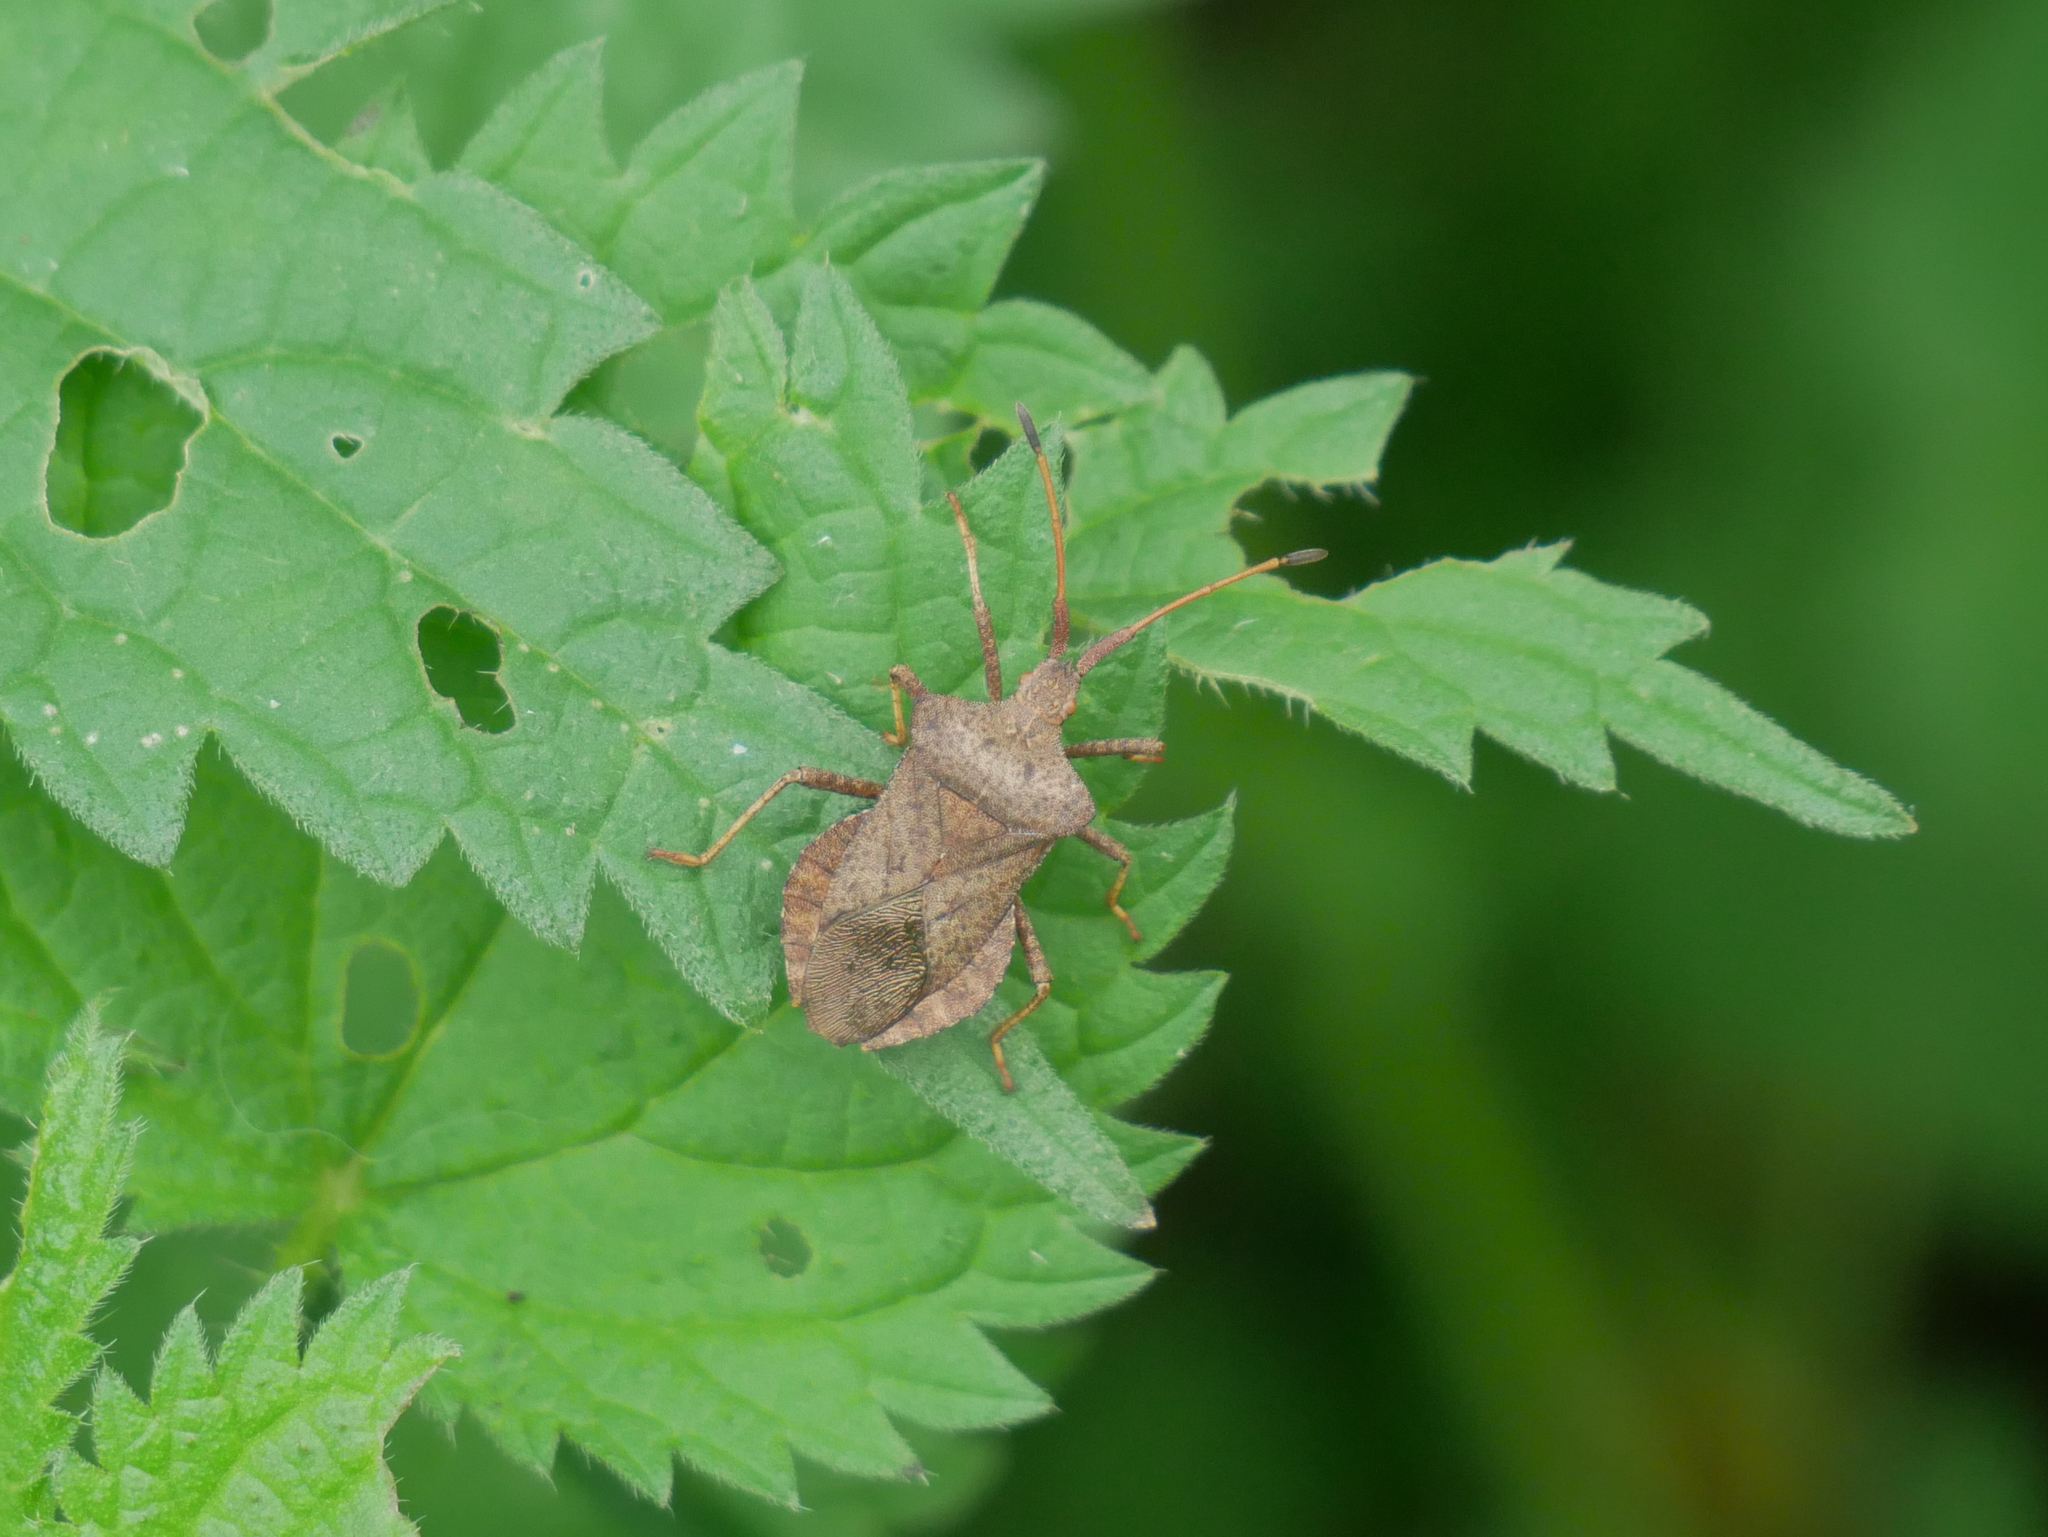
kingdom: Animalia
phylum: Arthropoda
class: Insecta
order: Hemiptera
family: Coreidae
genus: Coreus
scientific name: Coreus marginatus
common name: Dock bug
